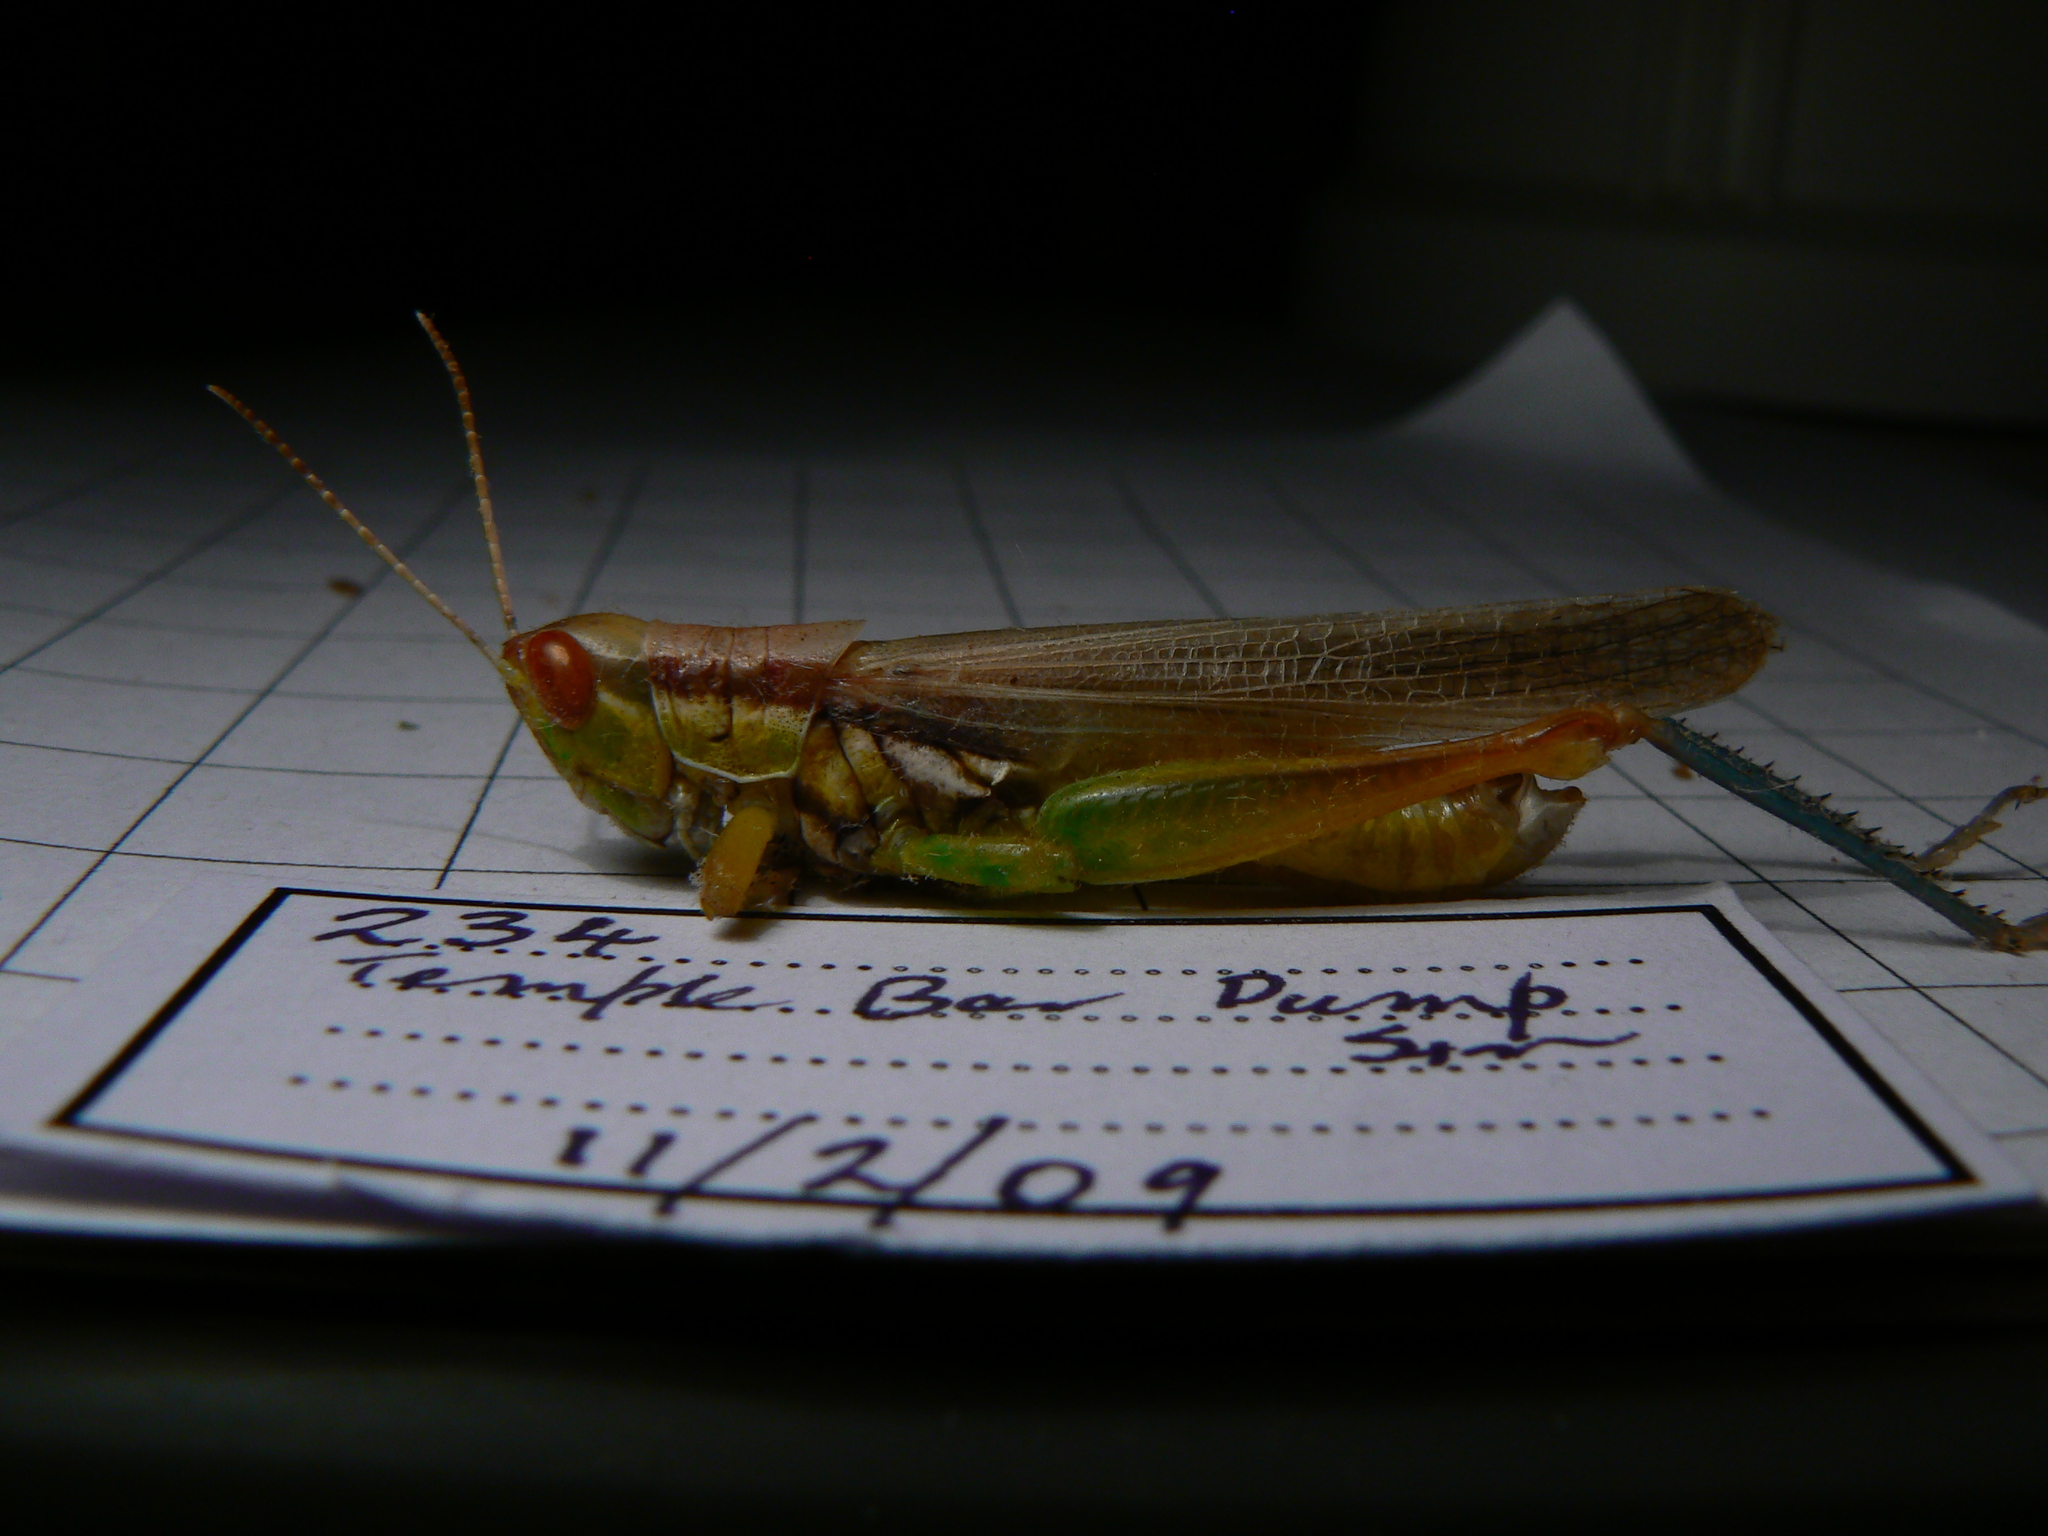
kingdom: Animalia
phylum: Arthropoda
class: Insecta
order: Orthoptera
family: Acrididae
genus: Bermius
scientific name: Bermius
